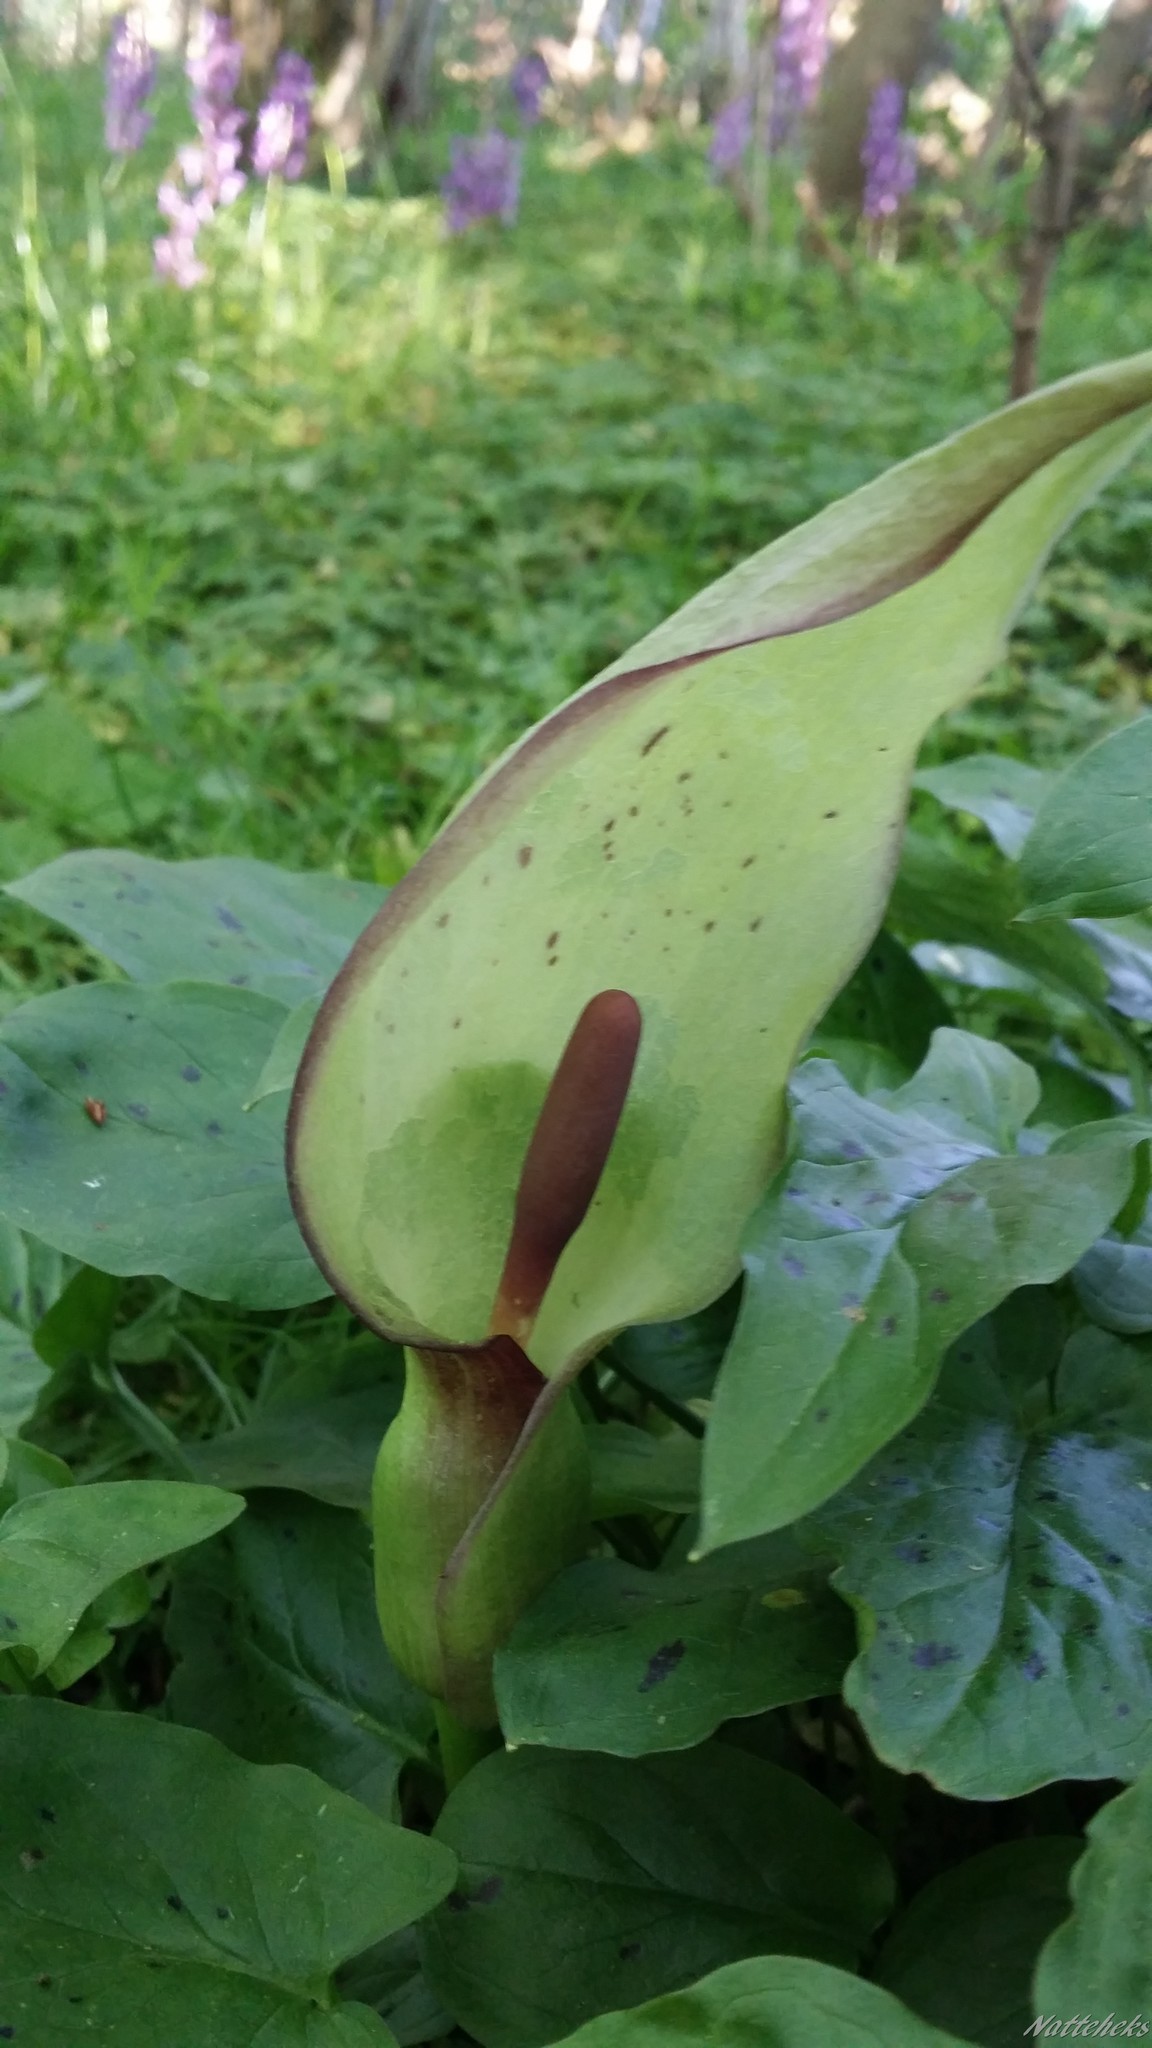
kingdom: Plantae
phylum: Tracheophyta
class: Liliopsida
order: Alismatales
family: Araceae
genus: Arum
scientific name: Arum maculatum
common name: Lords-and-ladies
